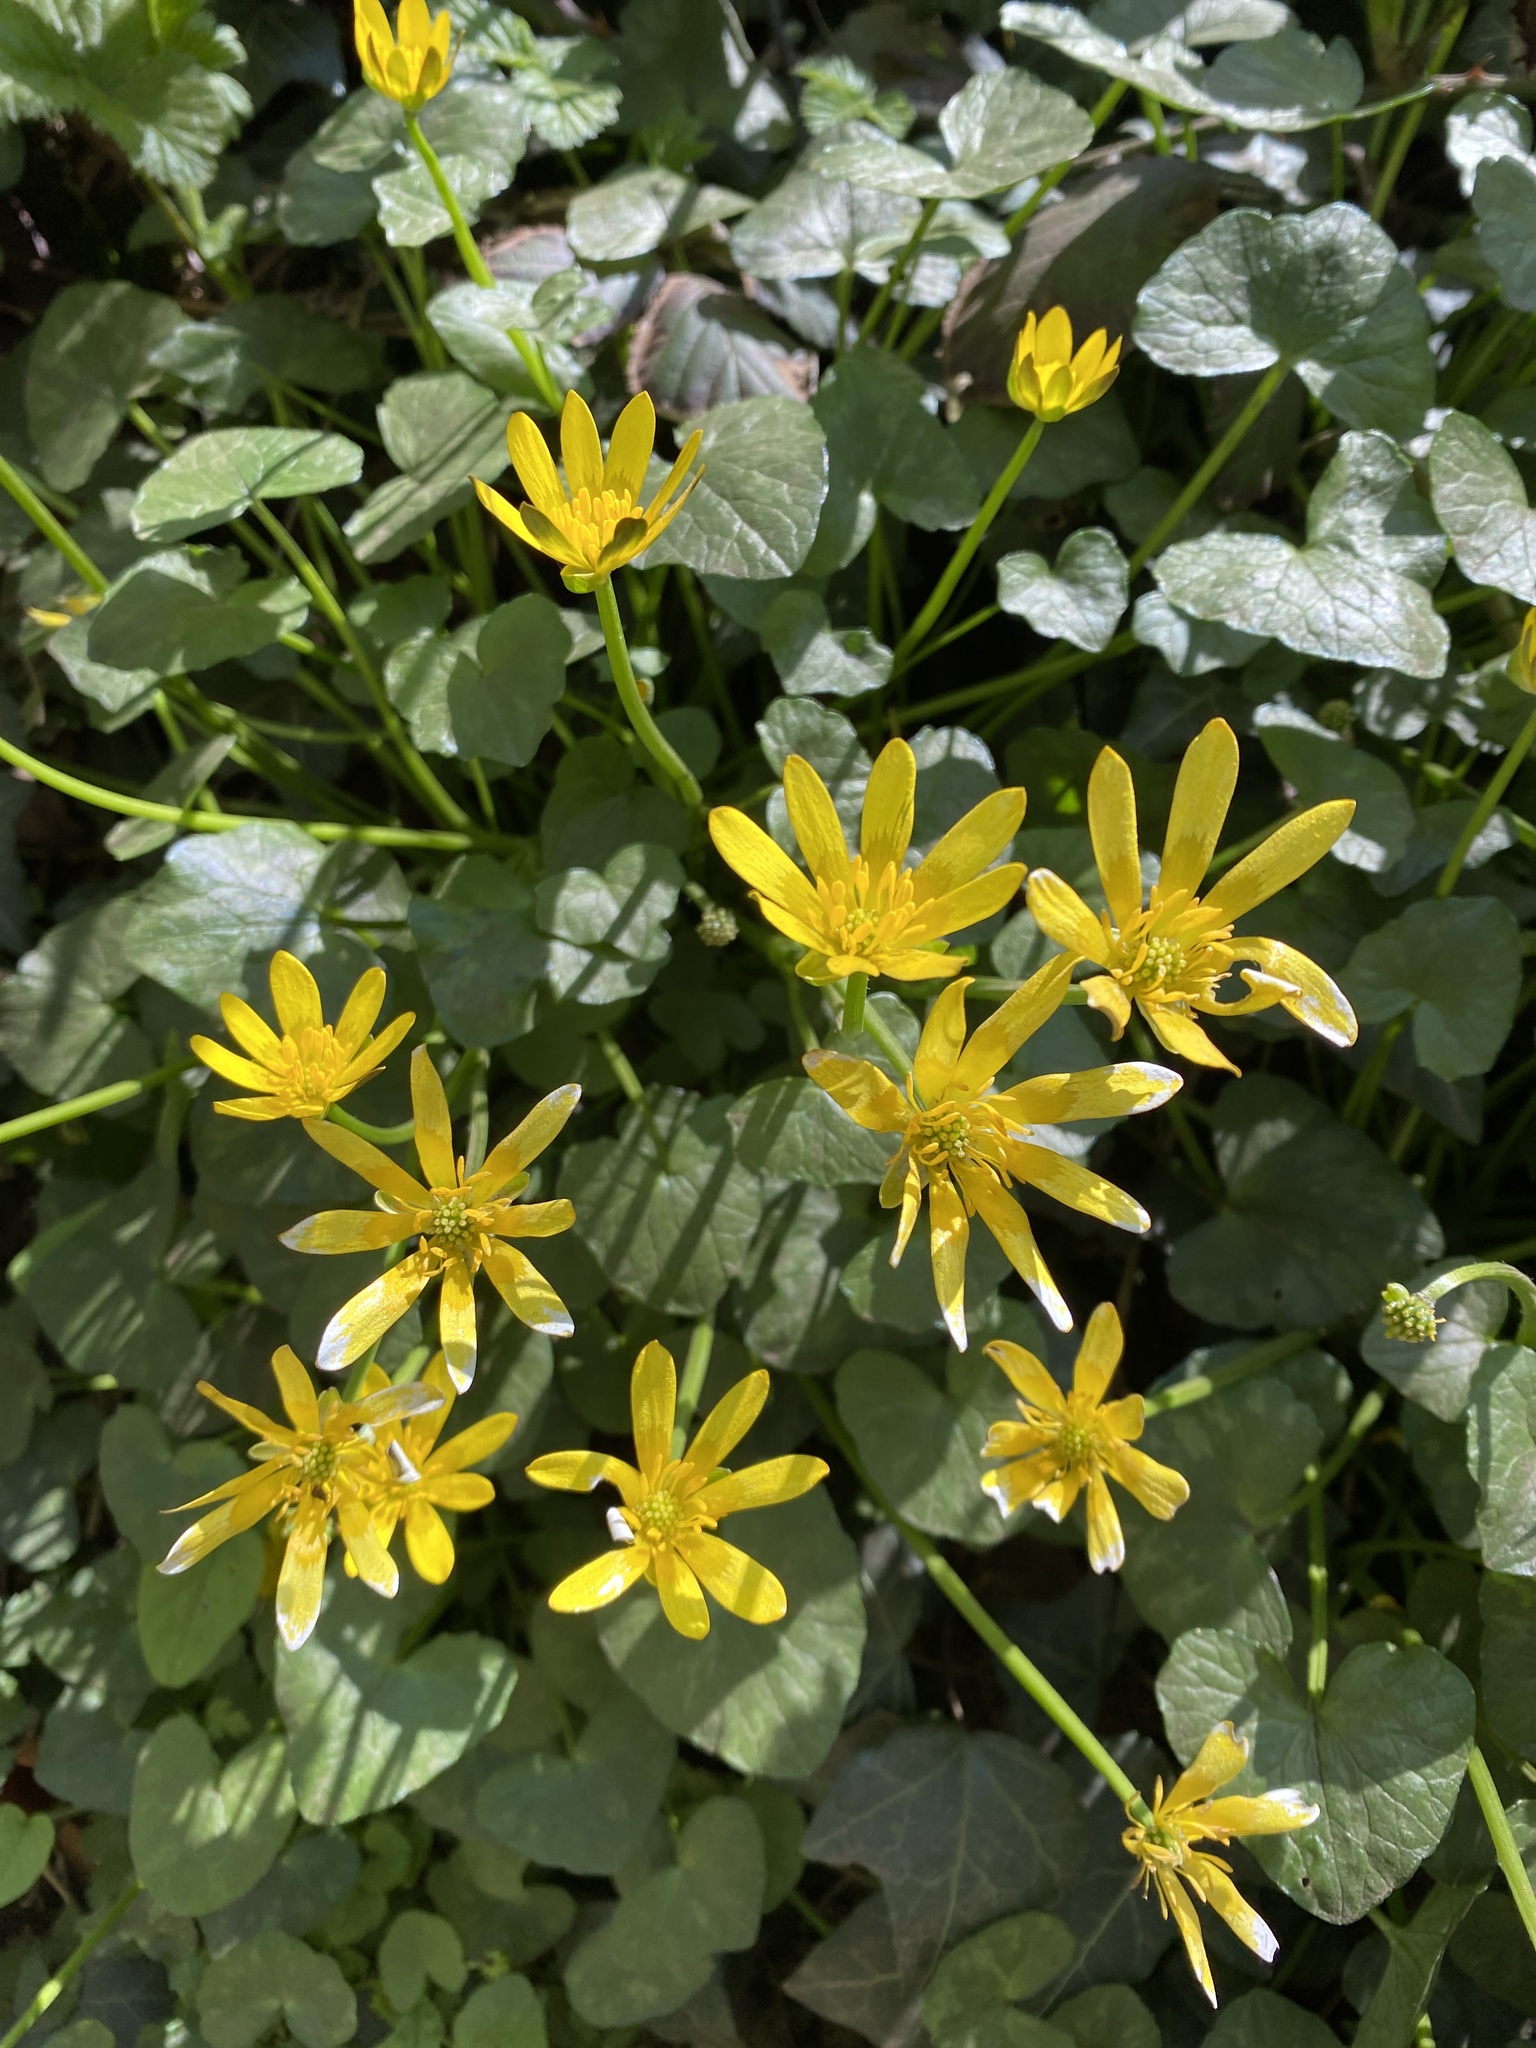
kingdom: Plantae
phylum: Tracheophyta
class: Magnoliopsida
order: Ranunculales
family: Ranunculaceae
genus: Ficaria
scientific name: Ficaria verna
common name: Lesser celandine
